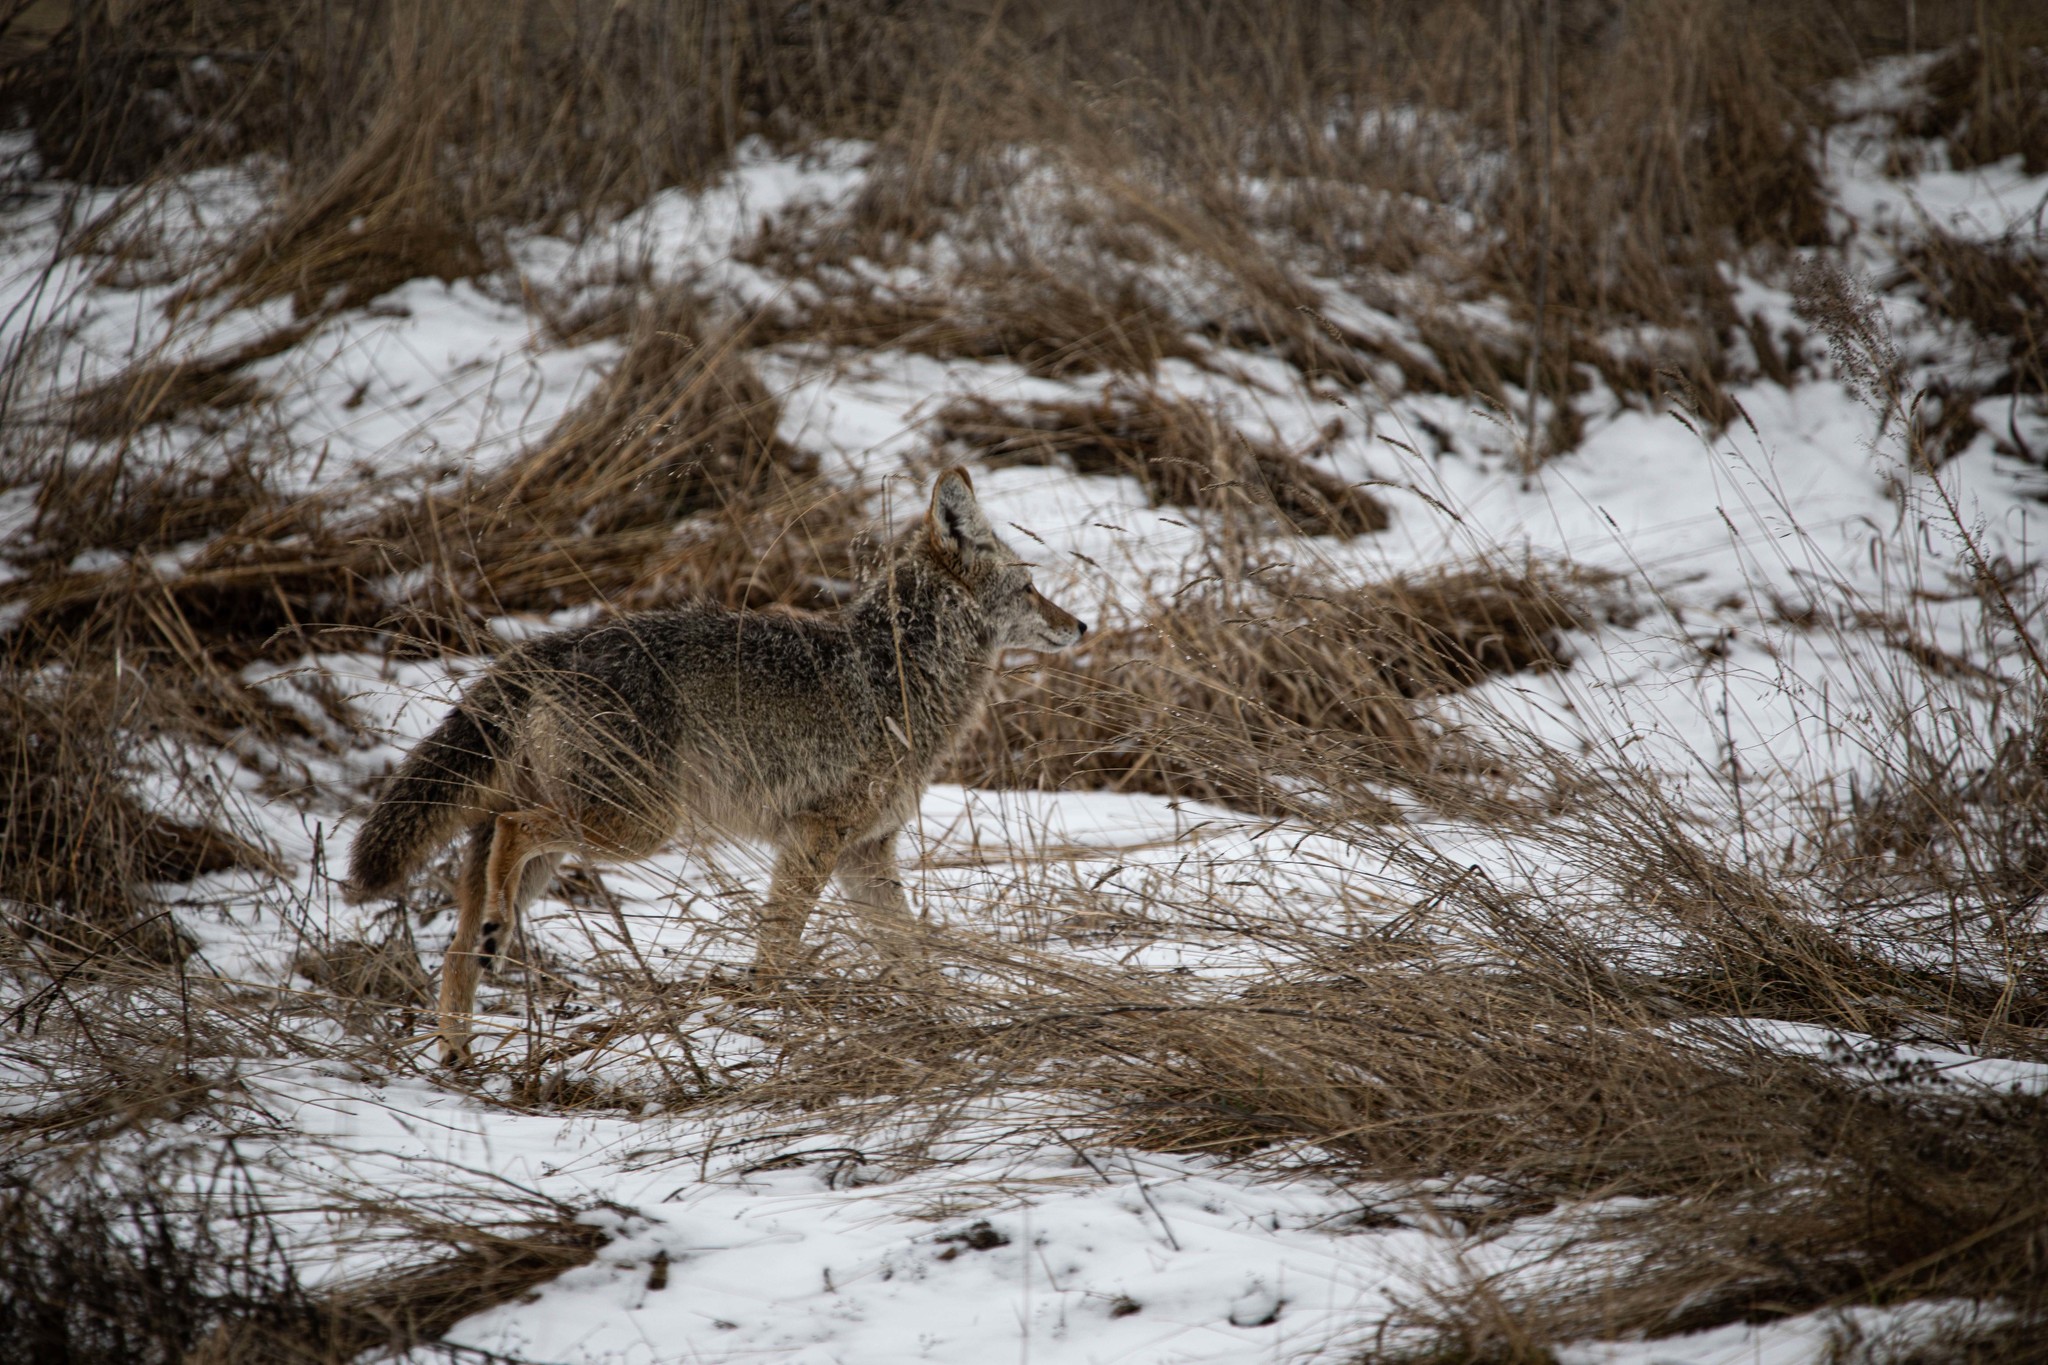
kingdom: Animalia
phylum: Chordata
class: Mammalia
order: Carnivora
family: Canidae
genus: Canis
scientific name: Canis latrans
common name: Coyote
